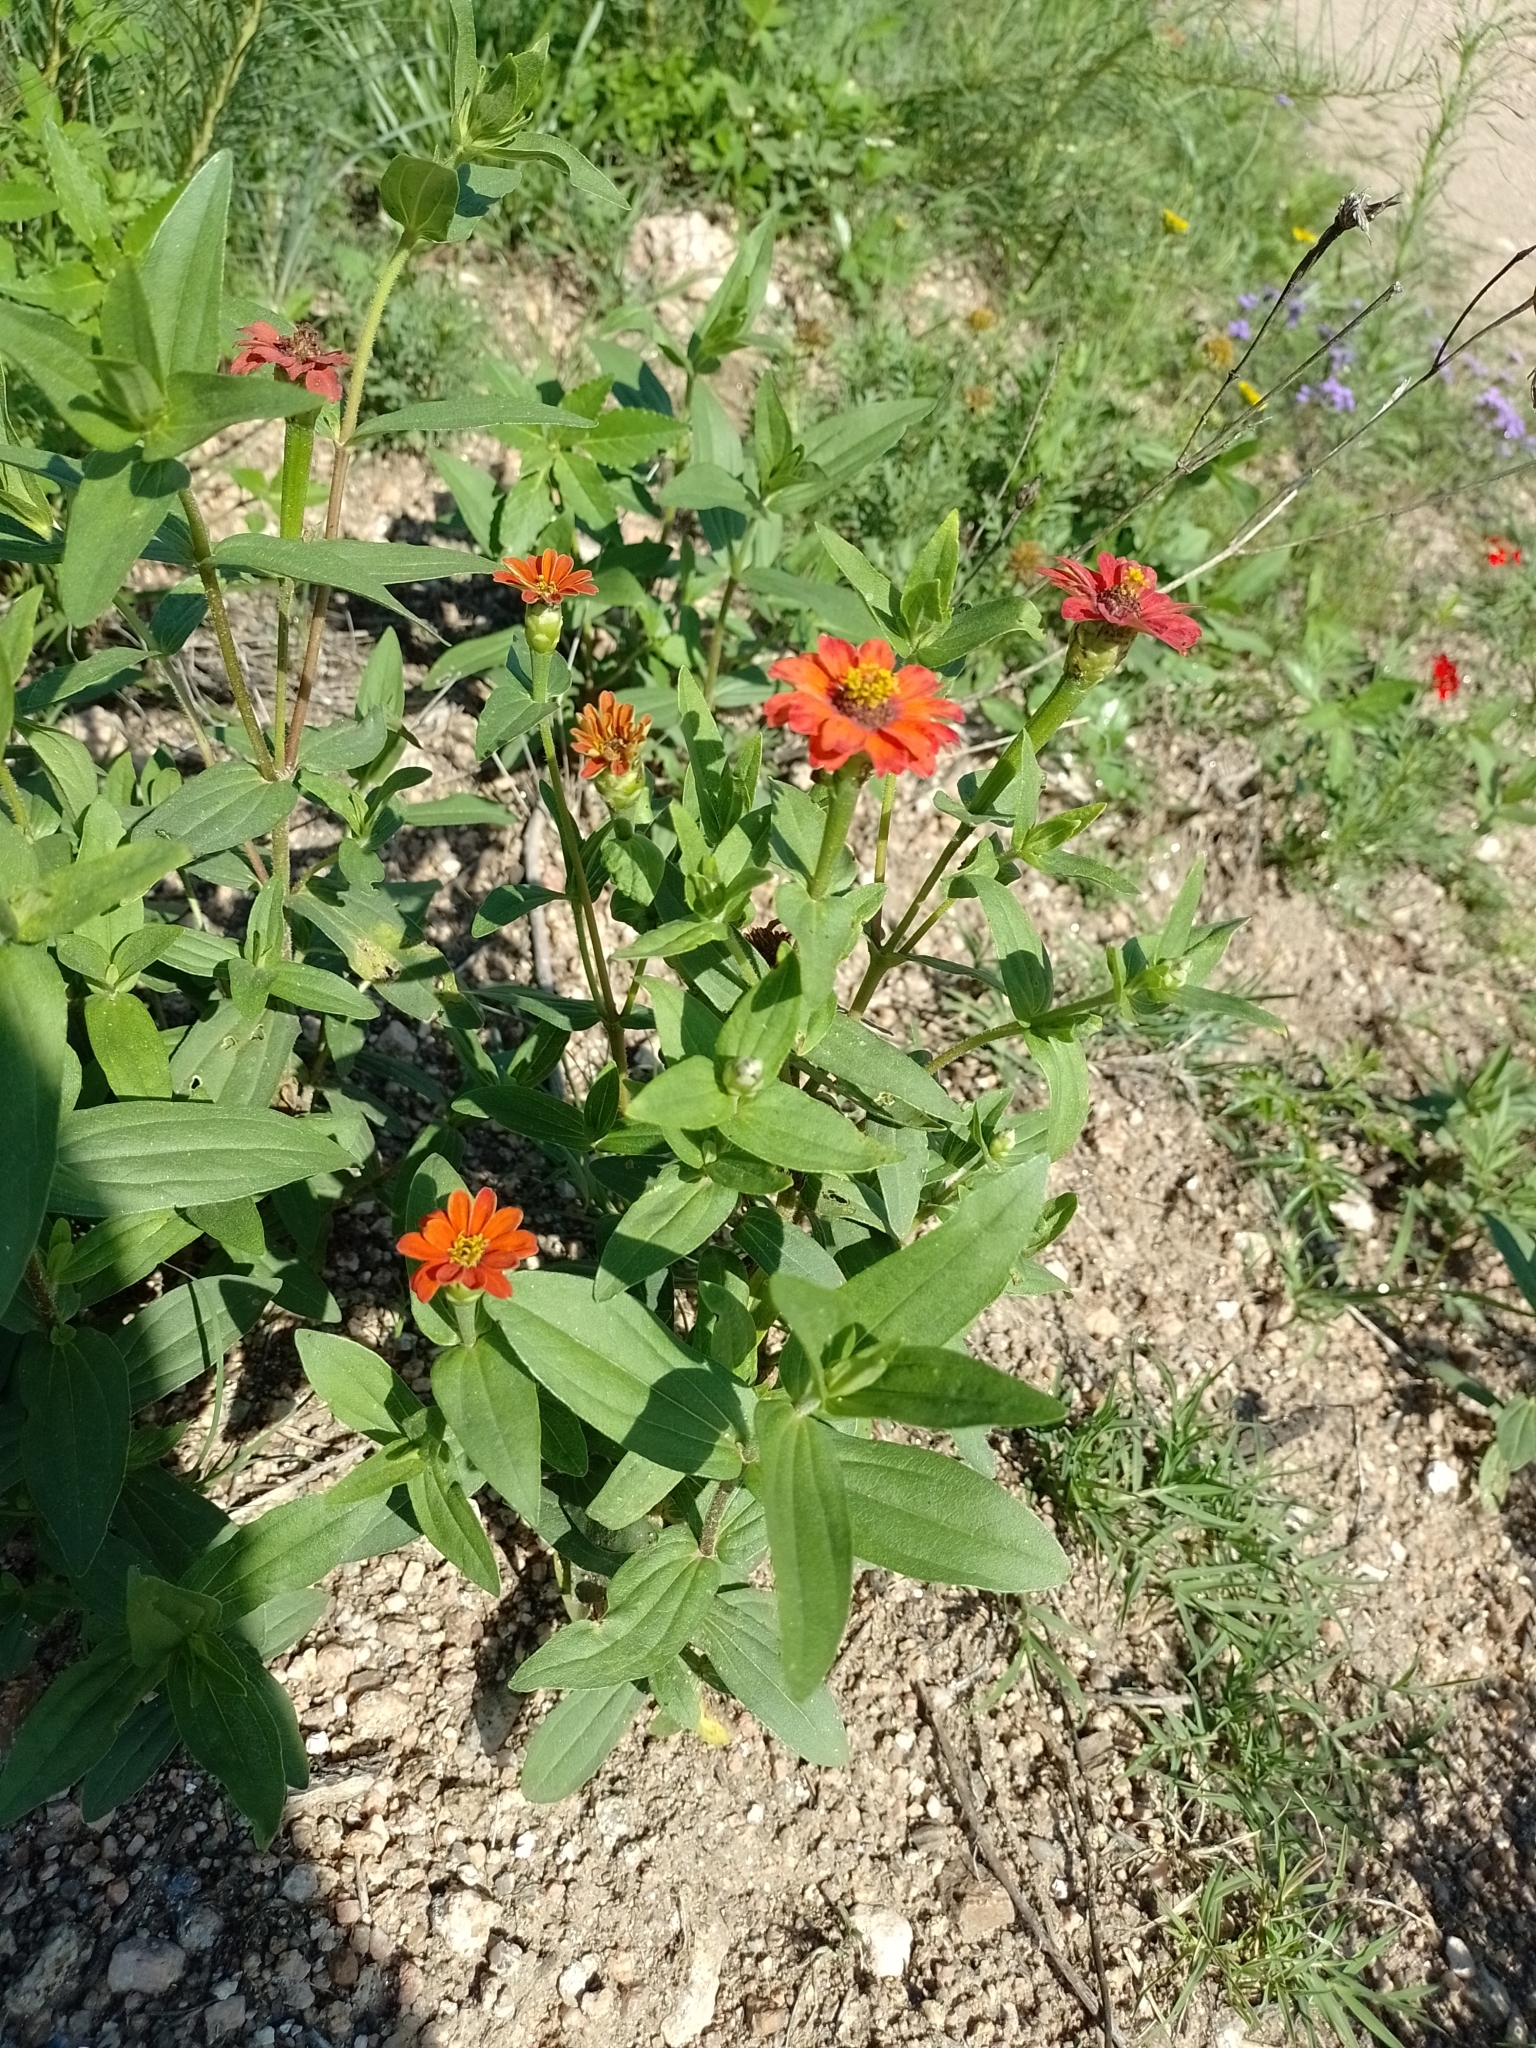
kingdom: Plantae
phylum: Tracheophyta
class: Magnoliopsida
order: Asterales
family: Asteraceae
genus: Zinnia
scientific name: Zinnia peruviana
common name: Peruvian zinnia
